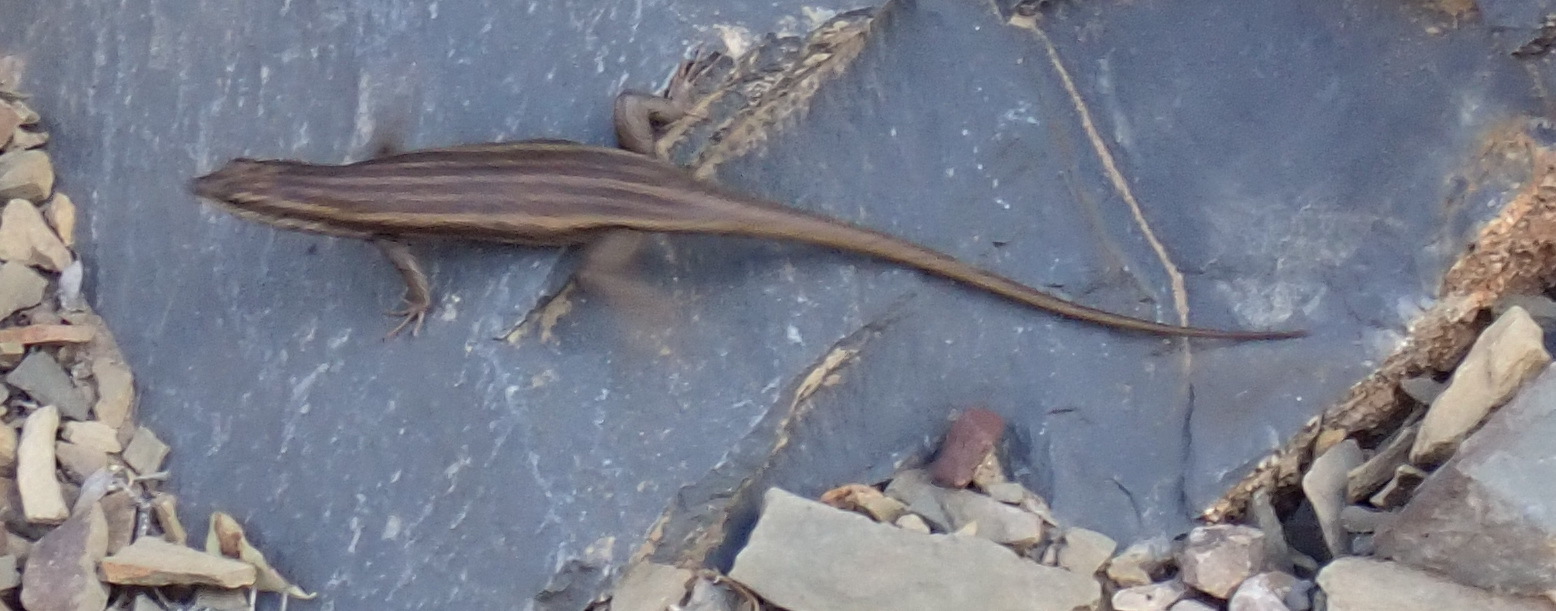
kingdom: Animalia
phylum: Chordata
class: Squamata
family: Scincidae
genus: Trachylepis
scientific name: Trachylepis sulcata
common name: Western rock skink
